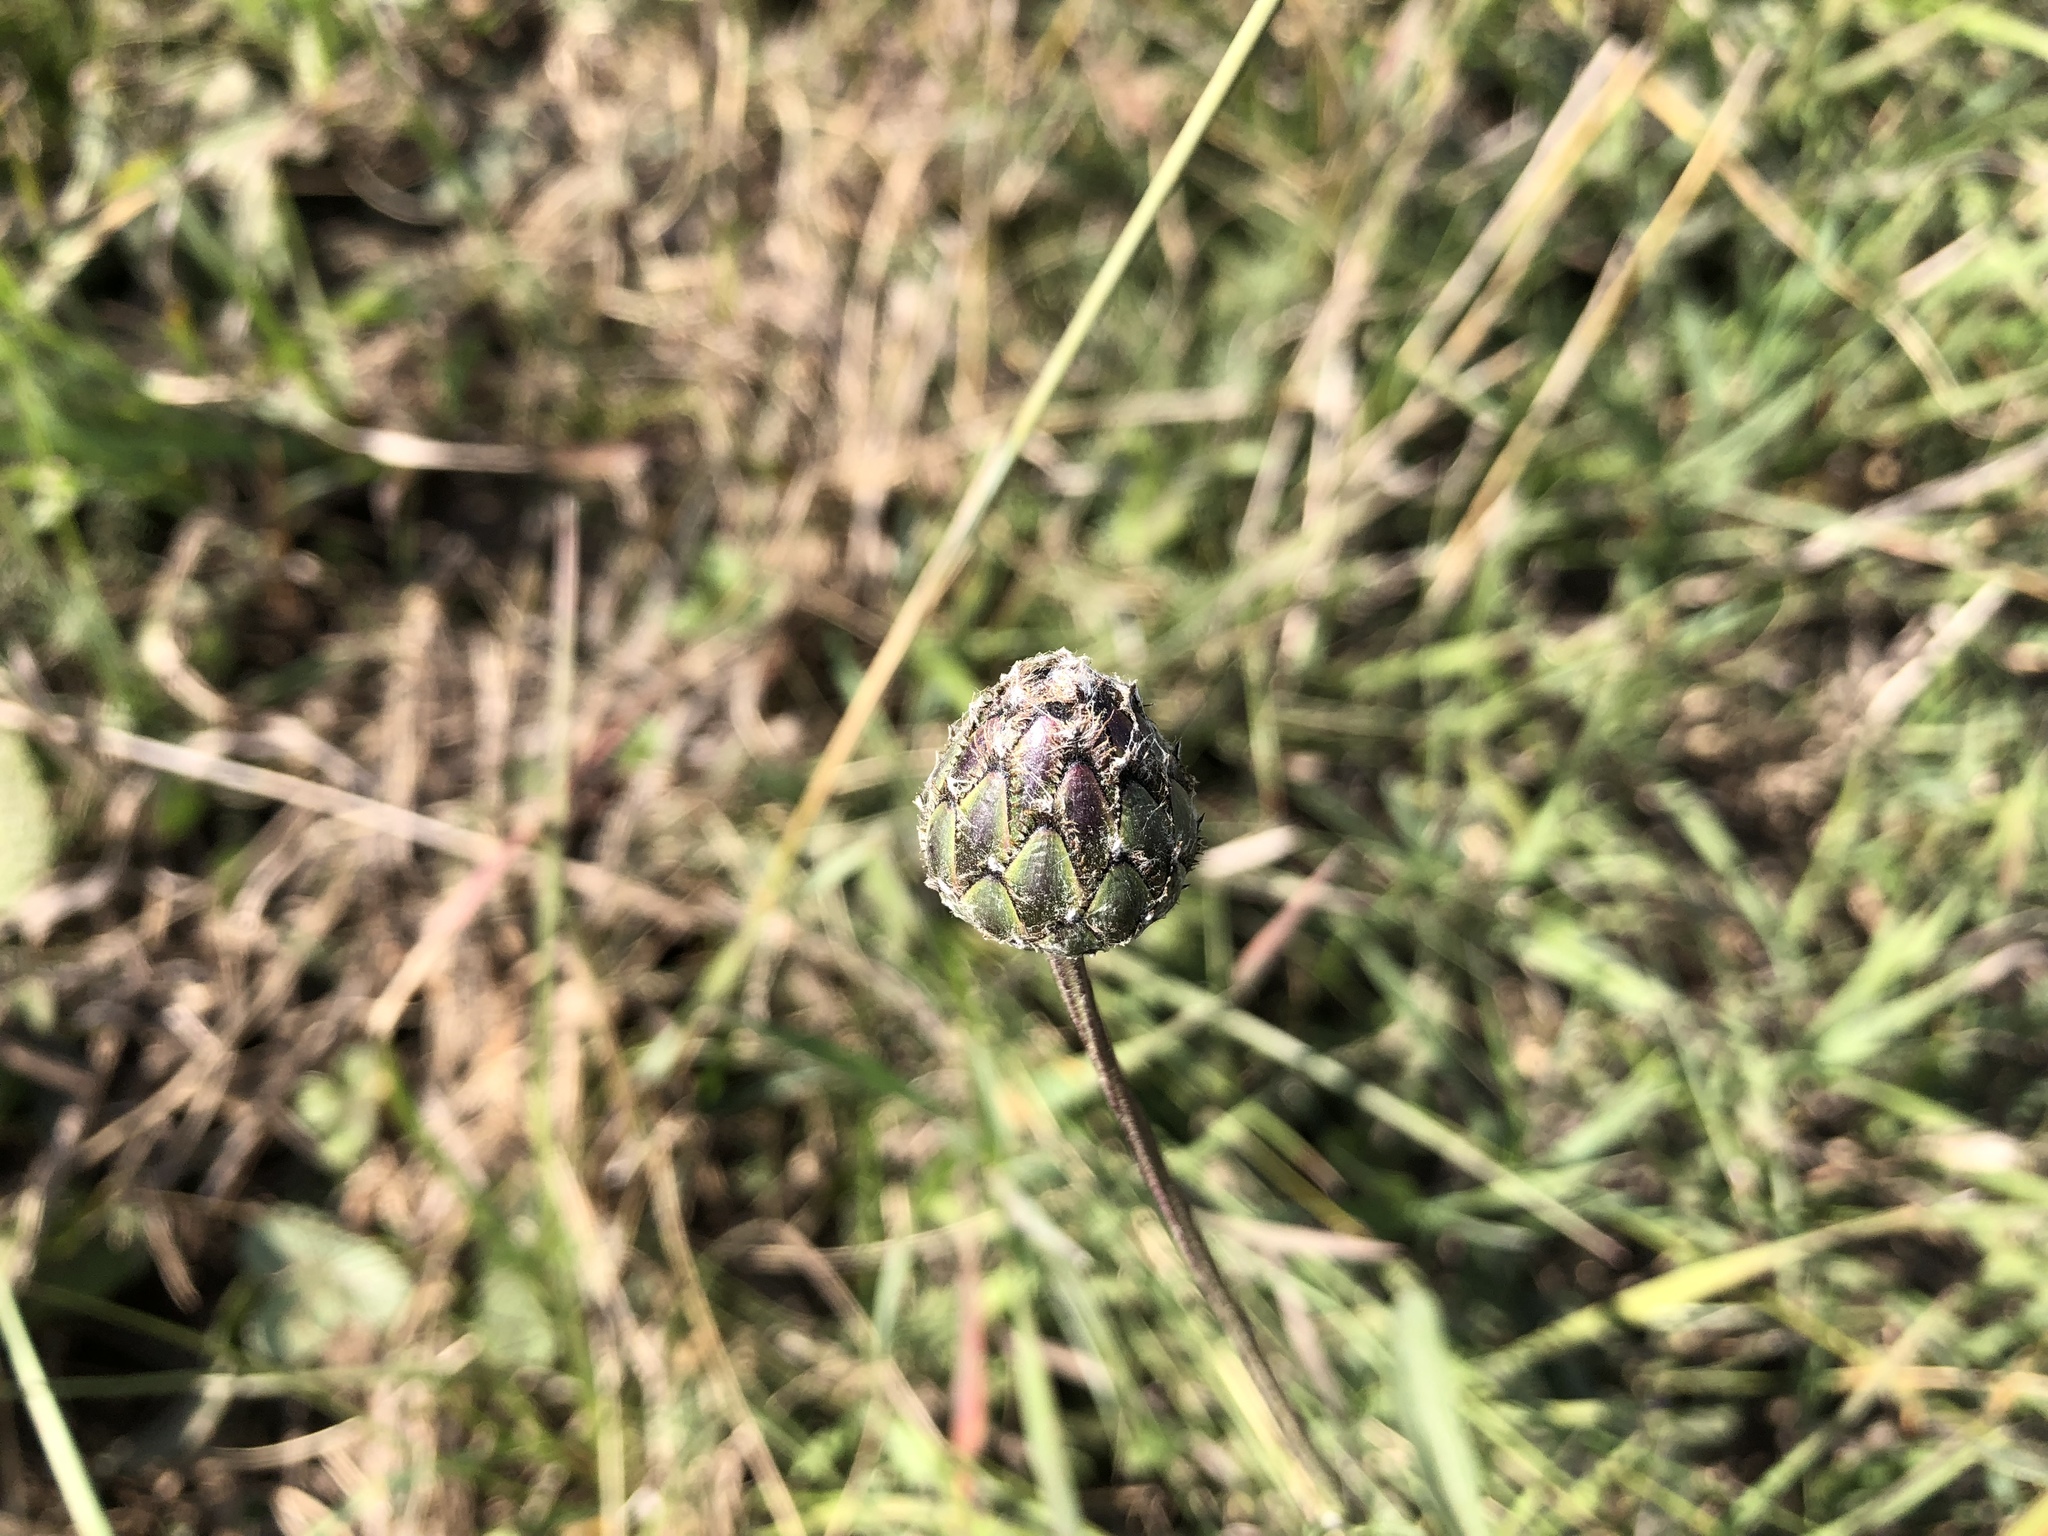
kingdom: Plantae
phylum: Tracheophyta
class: Magnoliopsida
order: Asterales
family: Asteraceae
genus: Centaurea
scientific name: Centaurea scabiosa
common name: Greater knapweed
